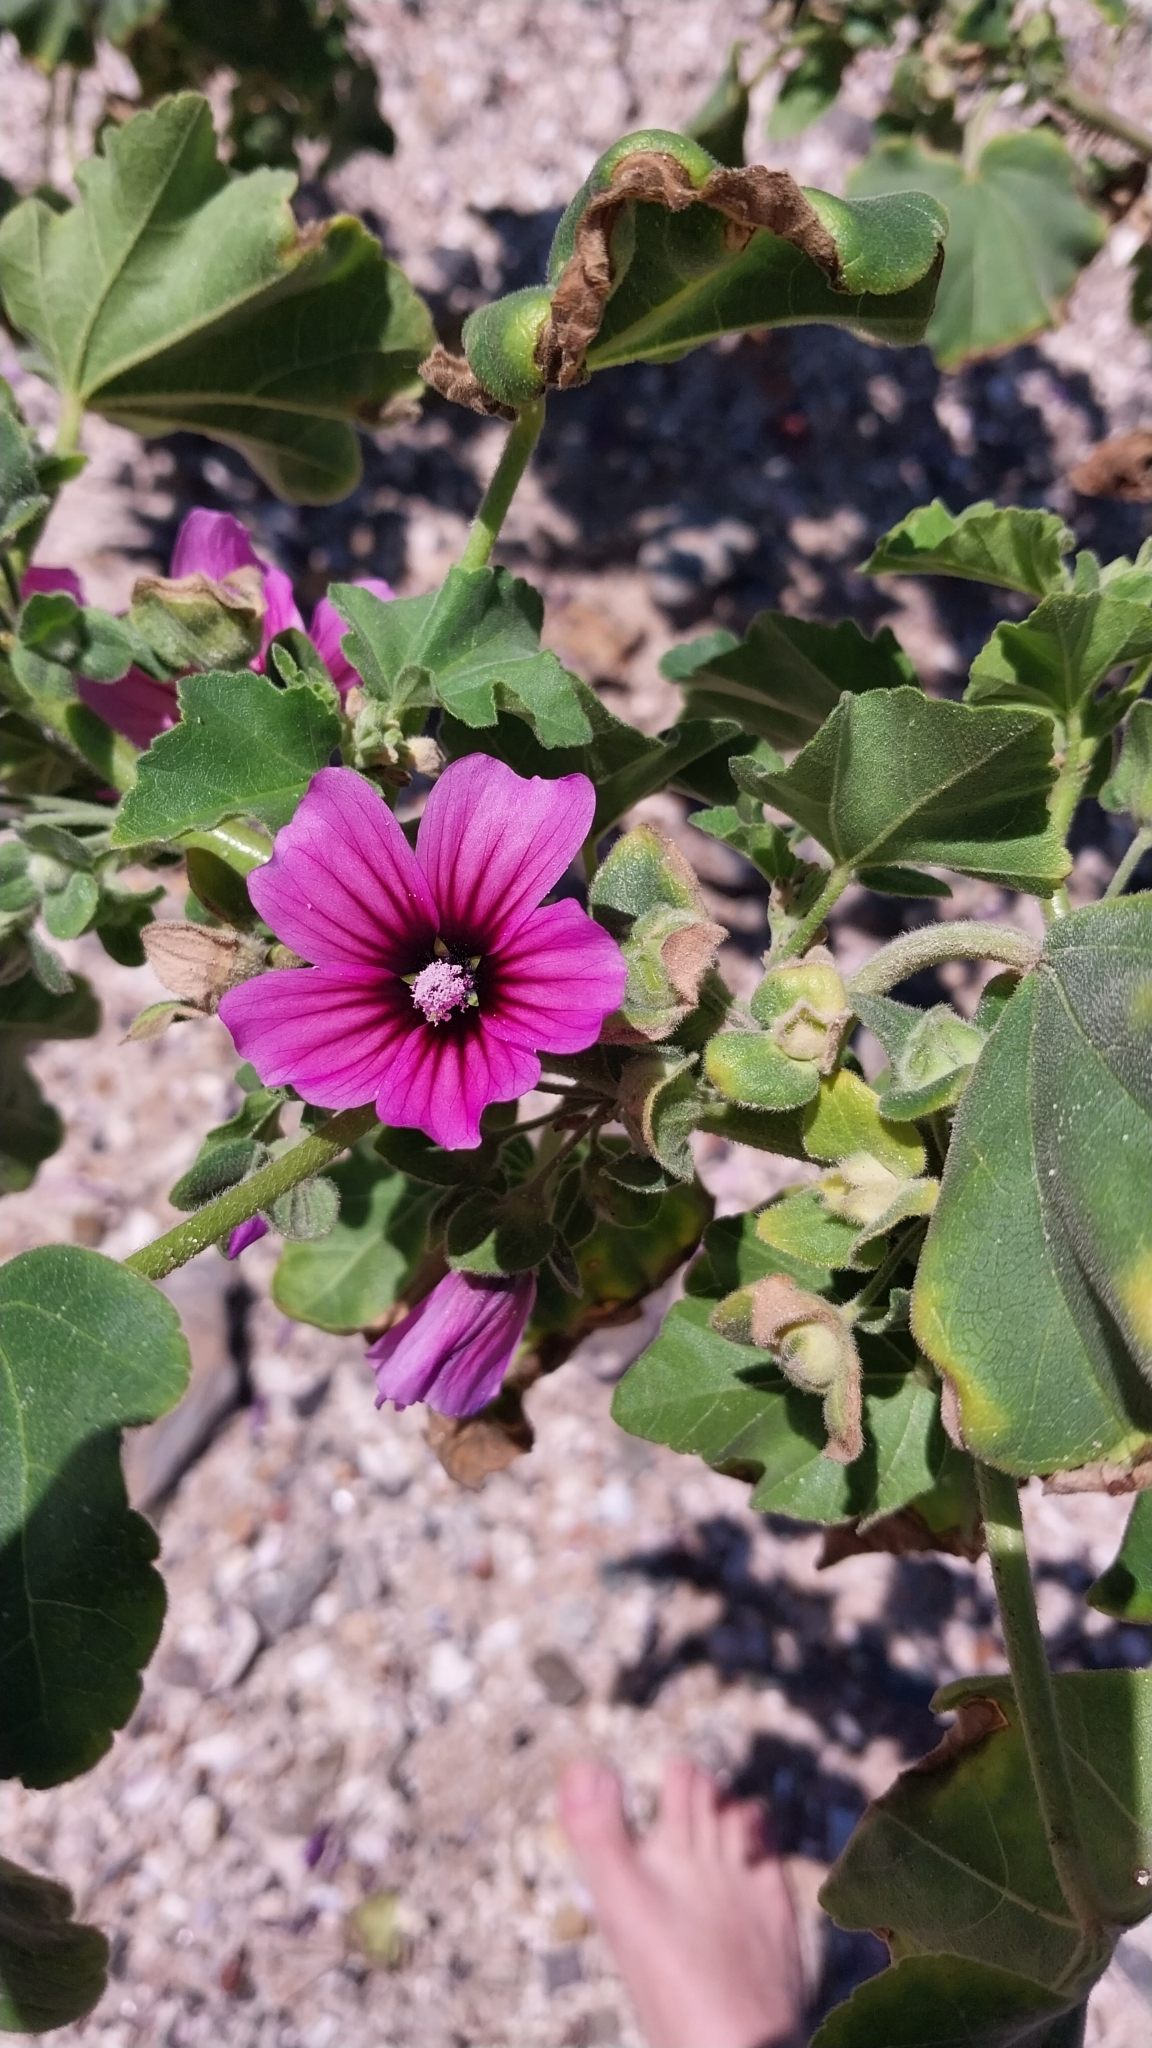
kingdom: Plantae
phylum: Tracheophyta
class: Magnoliopsida
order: Malvales
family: Malvaceae
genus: Malva
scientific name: Malva arborea
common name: Tree mallow
